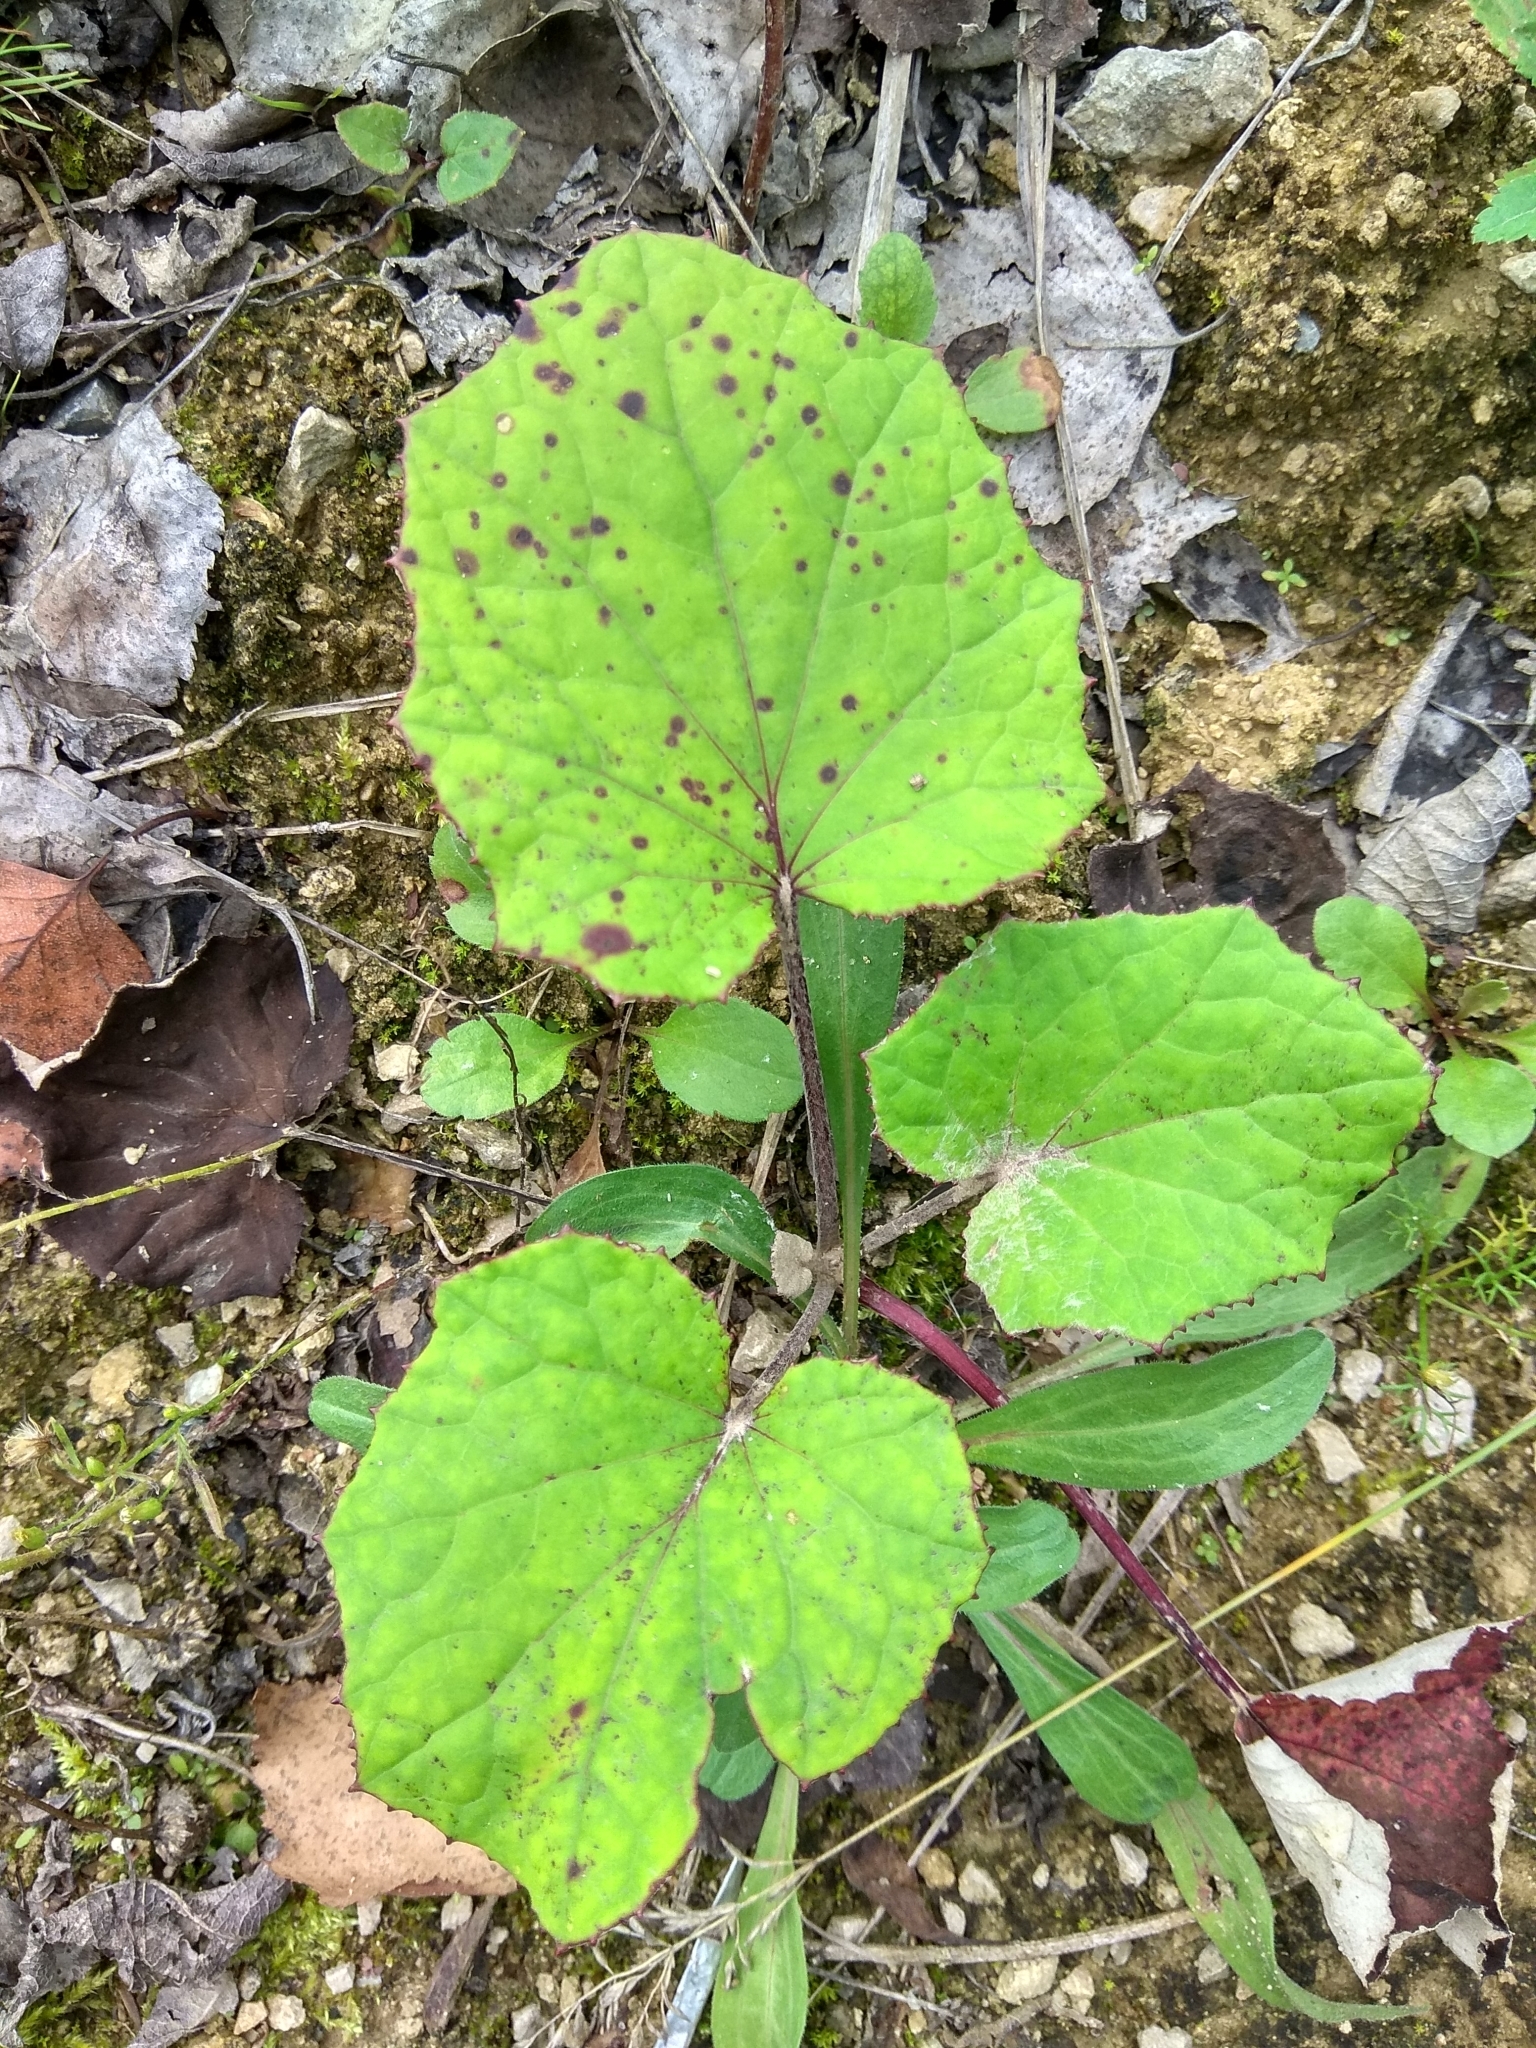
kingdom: Plantae
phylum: Tracheophyta
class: Magnoliopsida
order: Asterales
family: Asteraceae
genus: Tussilago
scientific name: Tussilago farfara
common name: Coltsfoot
